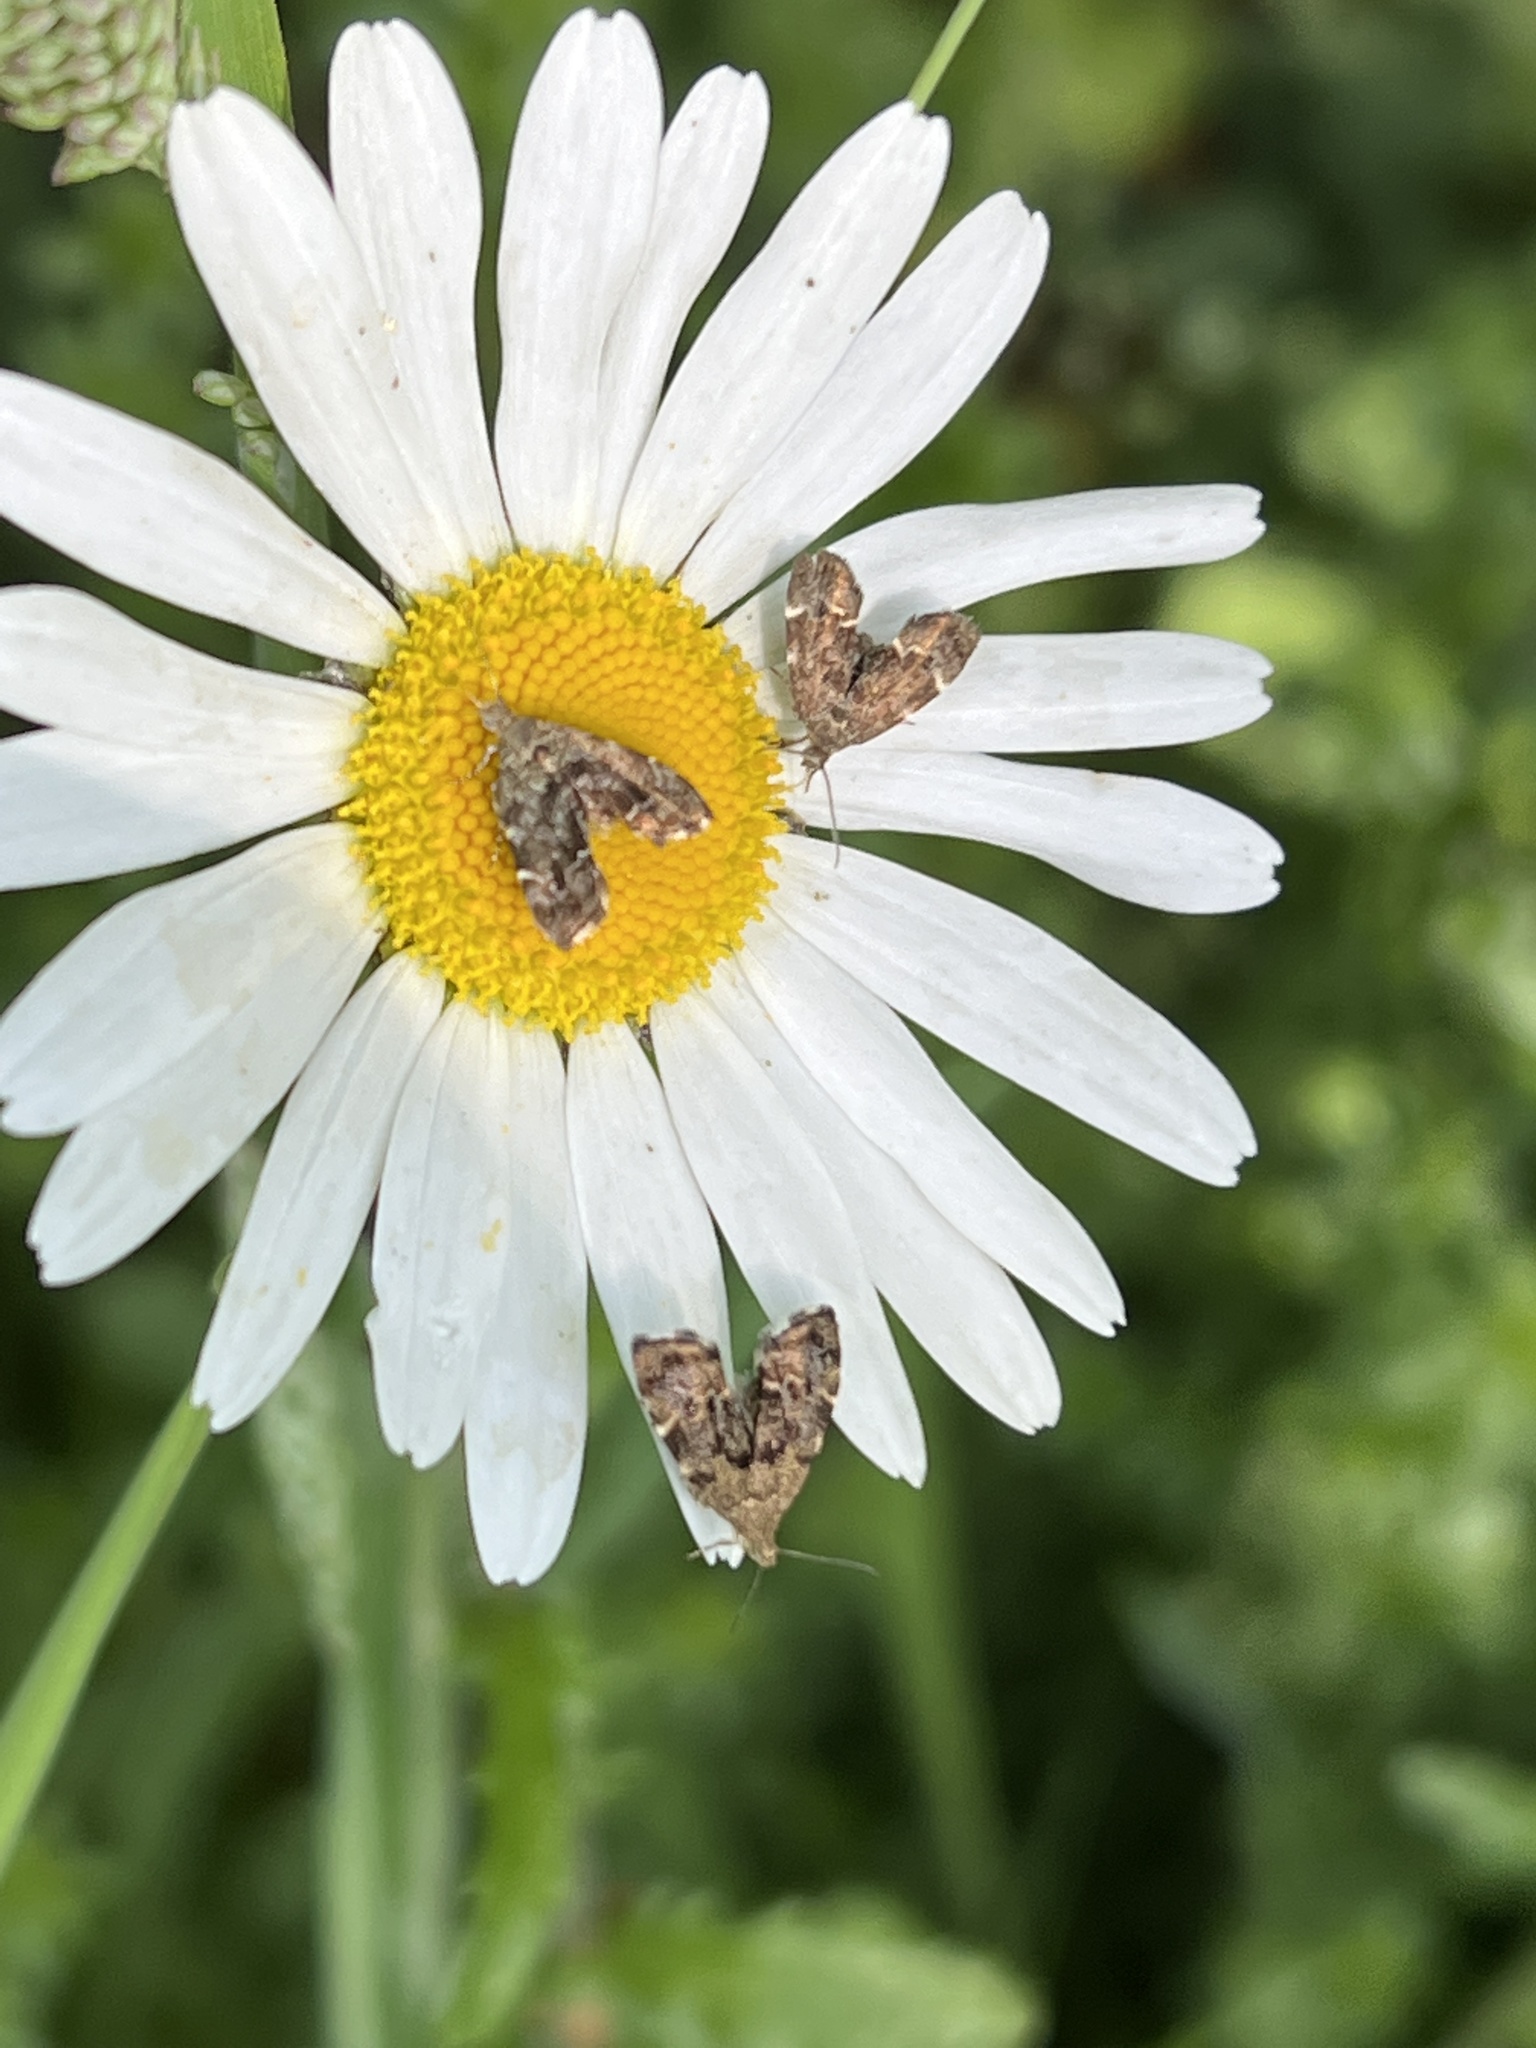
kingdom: Animalia
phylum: Arthropoda
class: Insecta
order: Lepidoptera
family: Choreutidae
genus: Anthophila
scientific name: Anthophila fabriciana
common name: Nettle-tap
